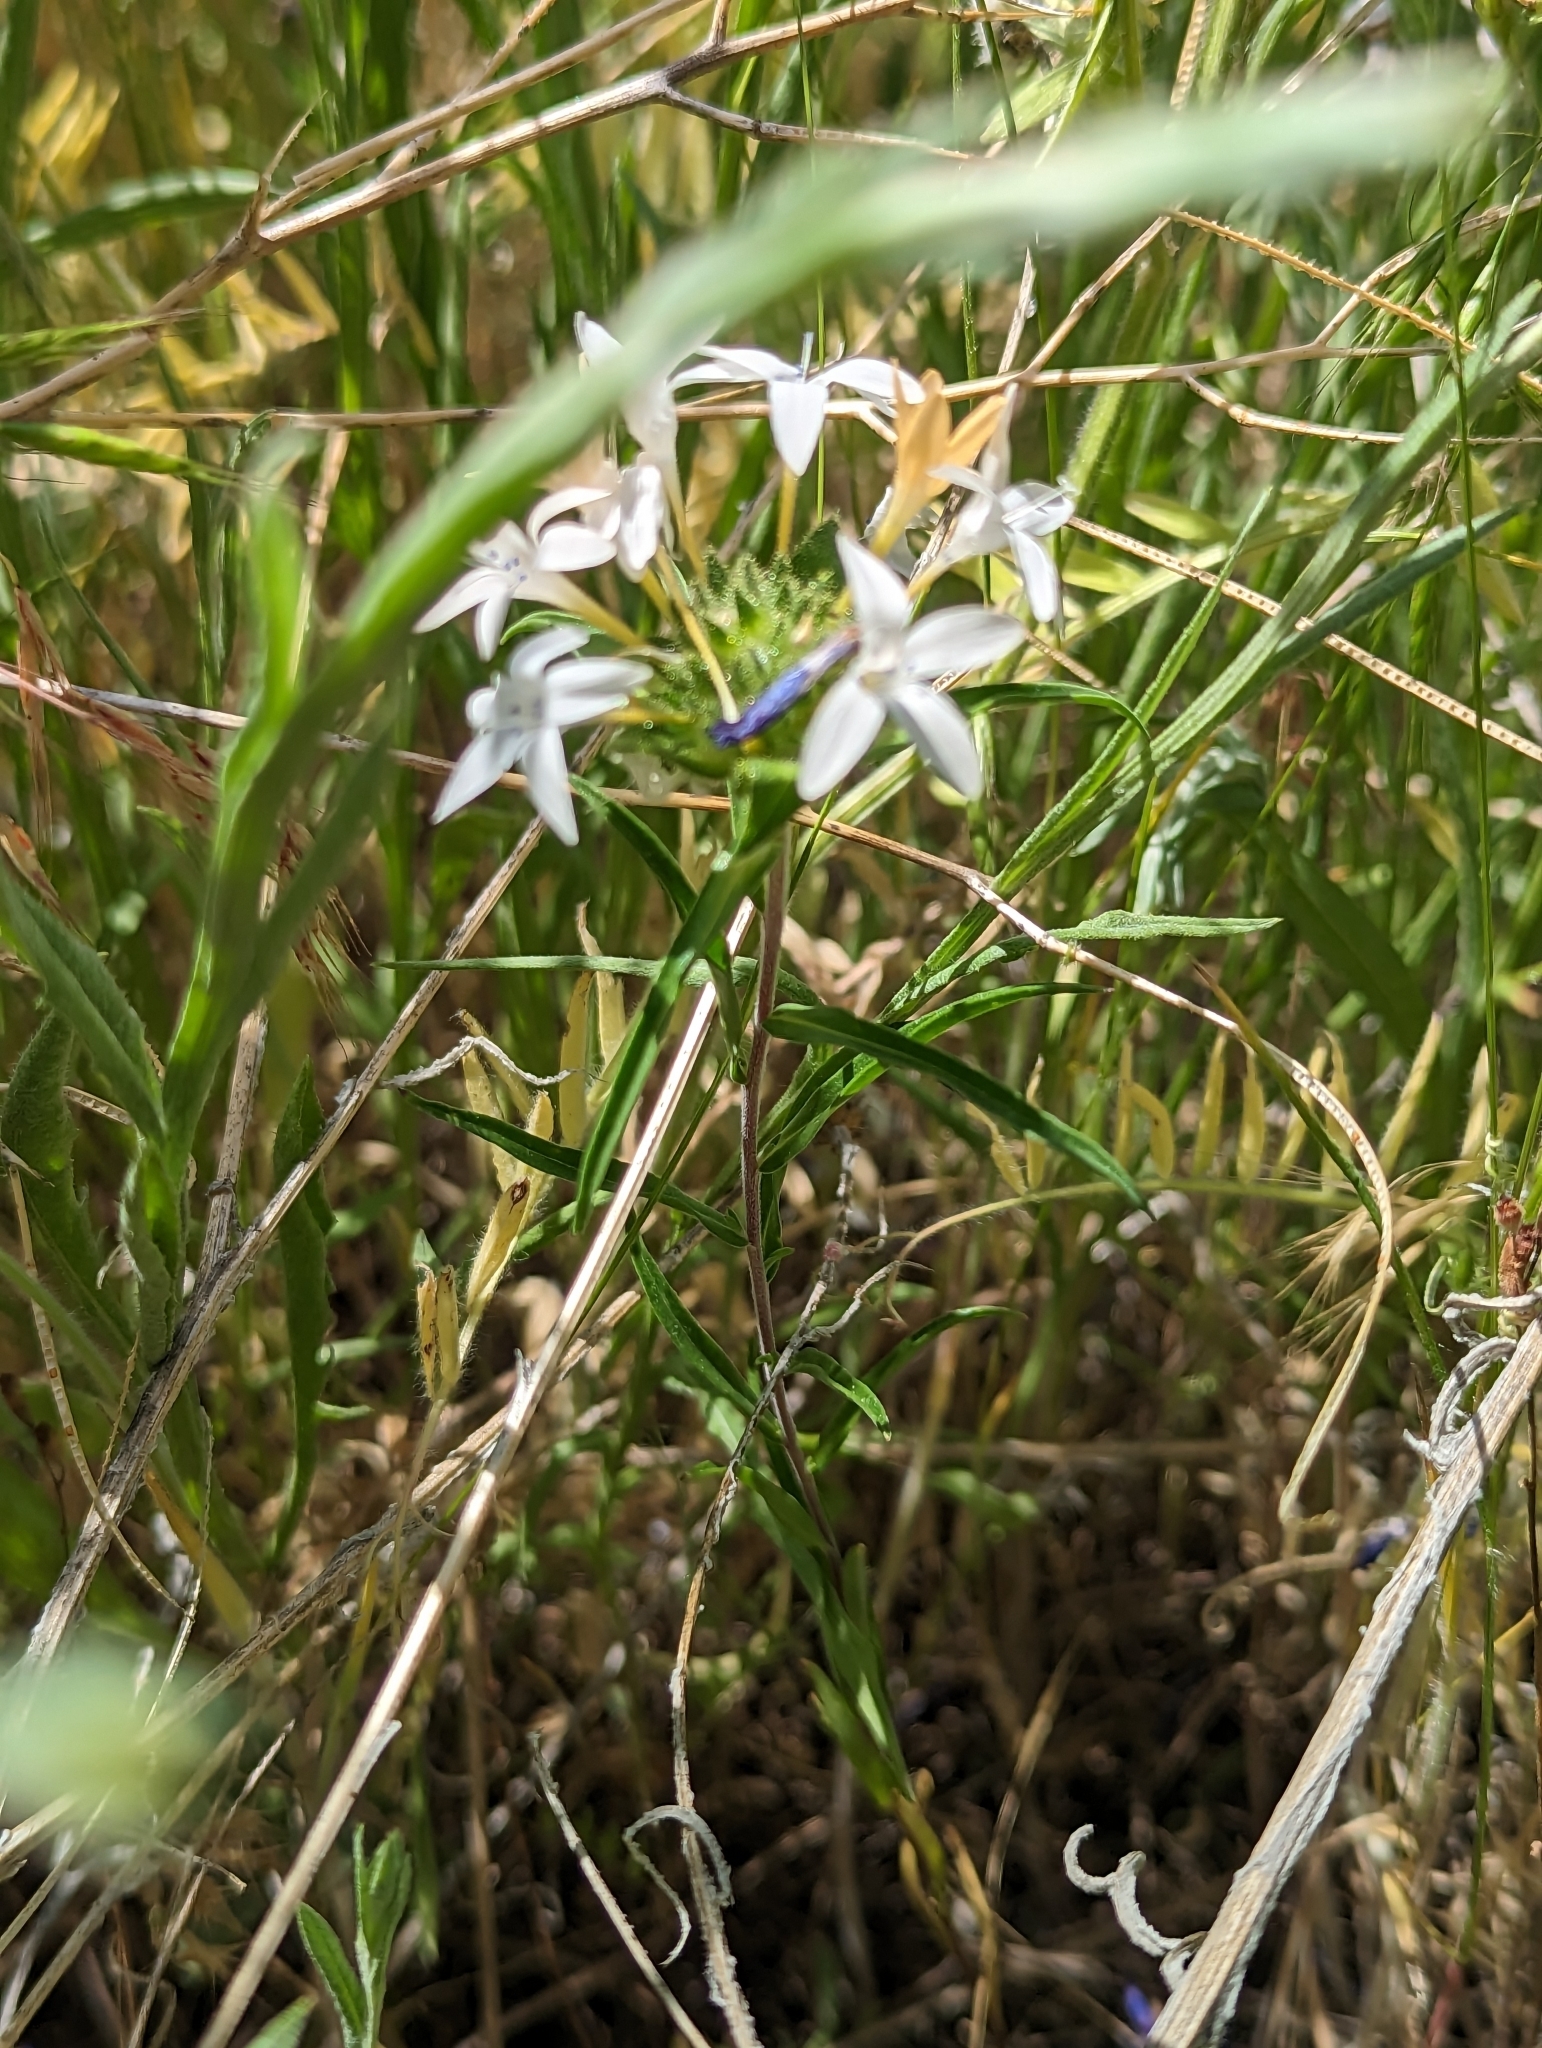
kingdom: Plantae
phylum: Tracheophyta
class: Magnoliopsida
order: Ericales
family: Polemoniaceae
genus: Collomia
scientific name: Collomia grandiflora
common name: California strawflower
